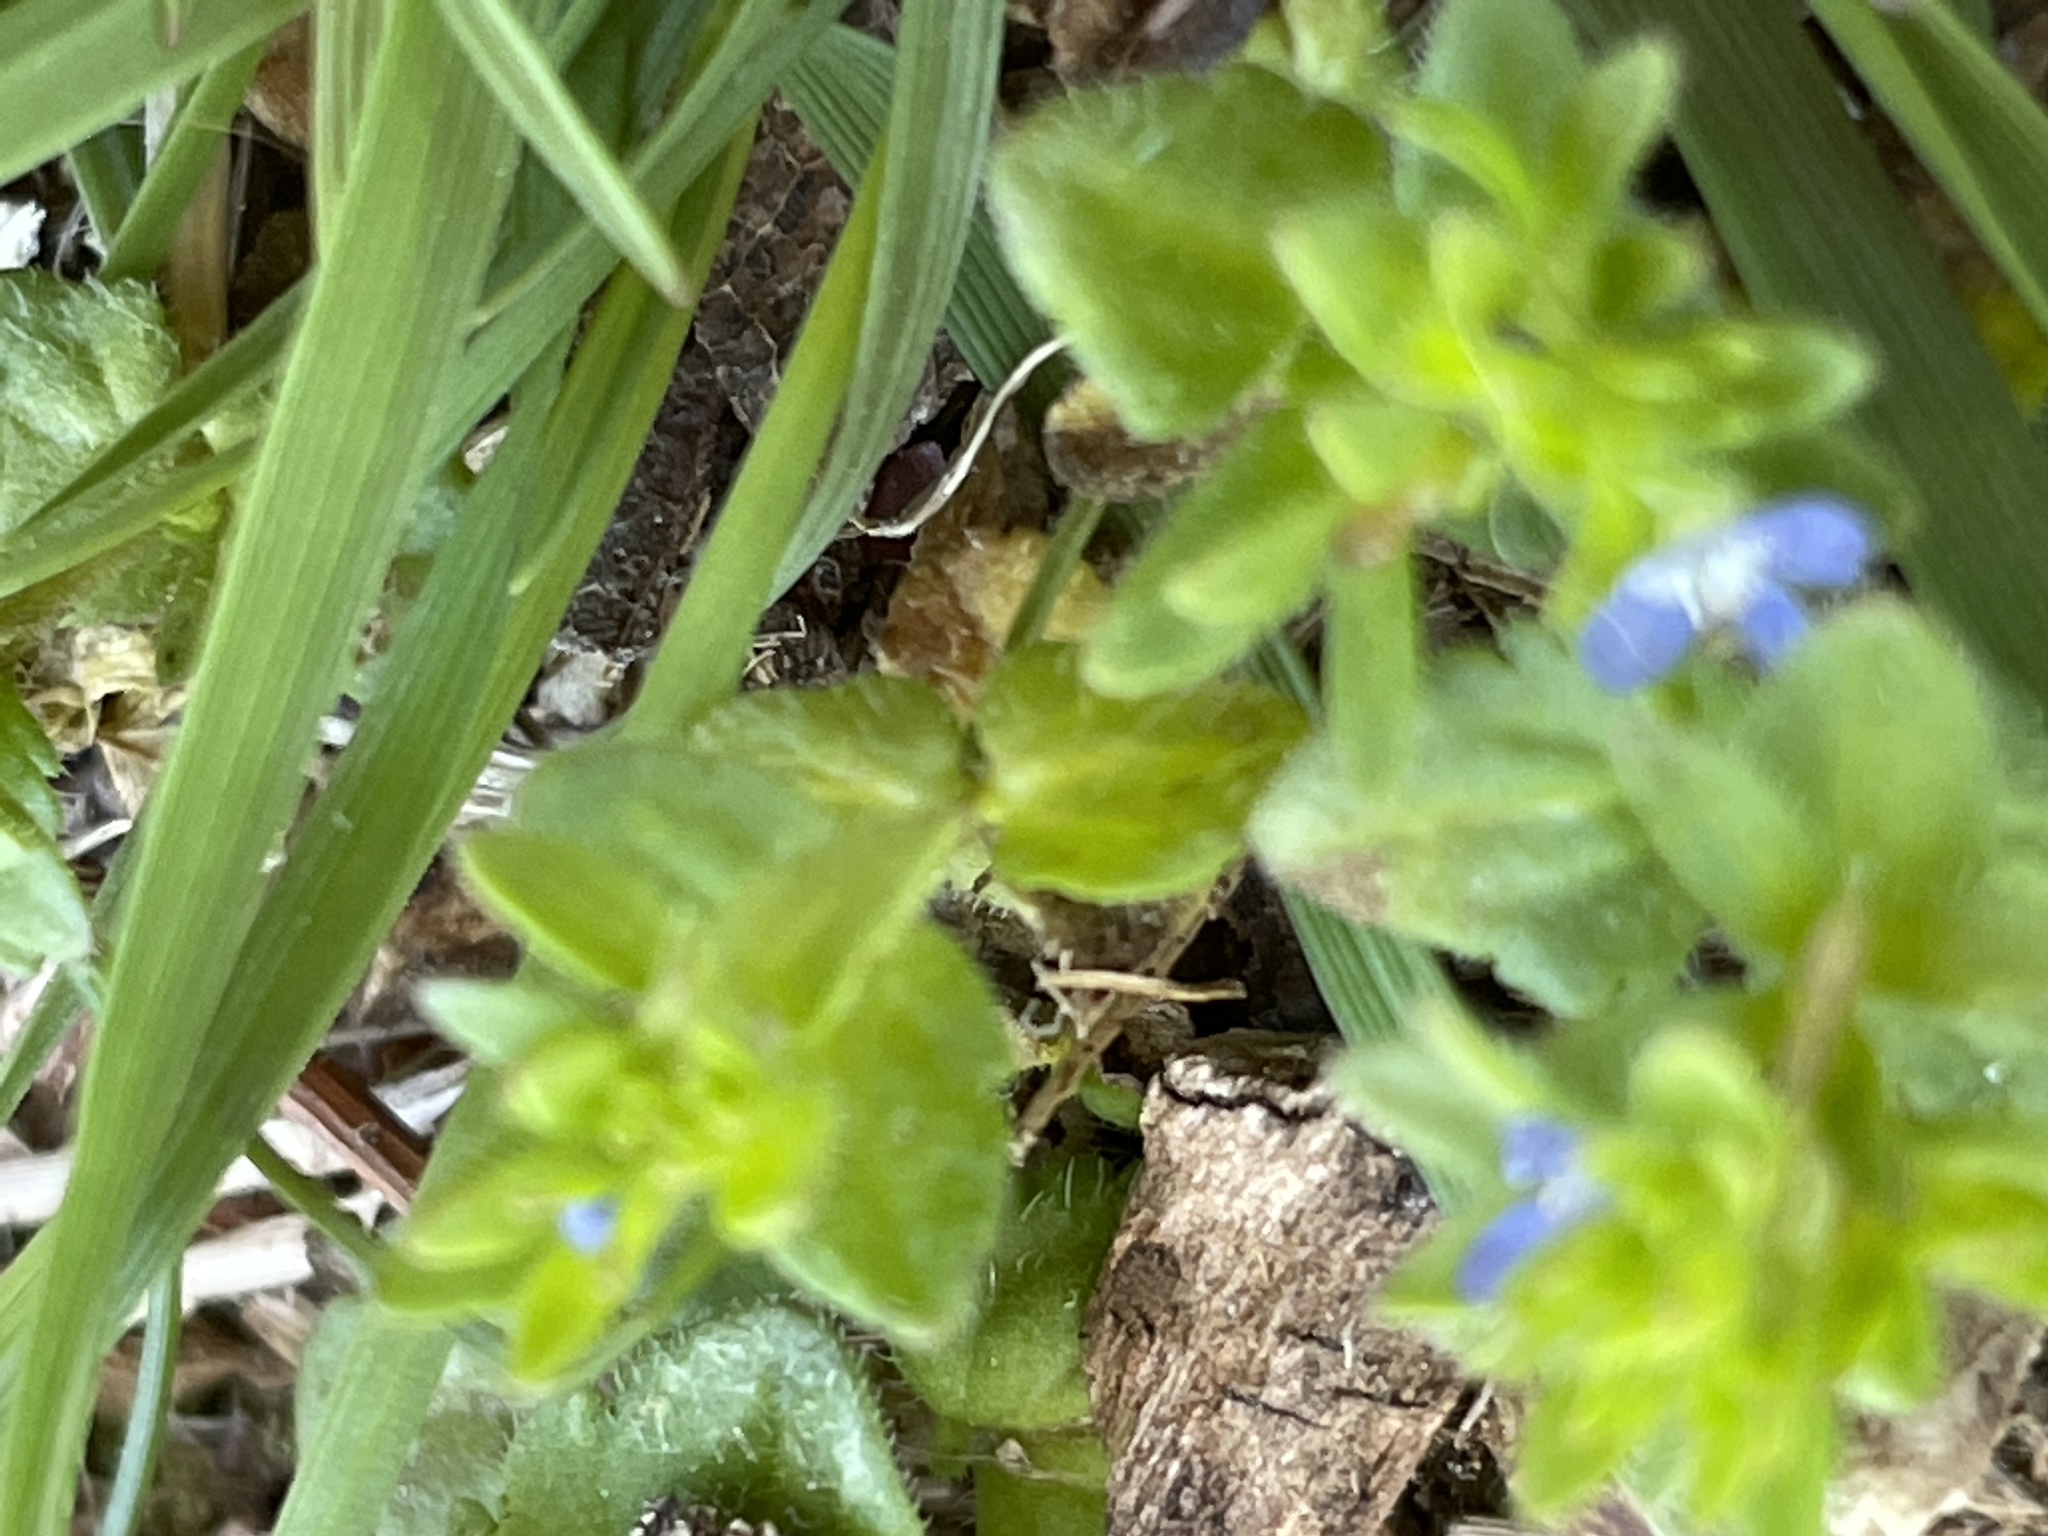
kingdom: Plantae
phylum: Tracheophyta
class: Magnoliopsida
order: Lamiales
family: Plantaginaceae
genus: Veronica
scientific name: Veronica arvensis
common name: Corn speedwell
